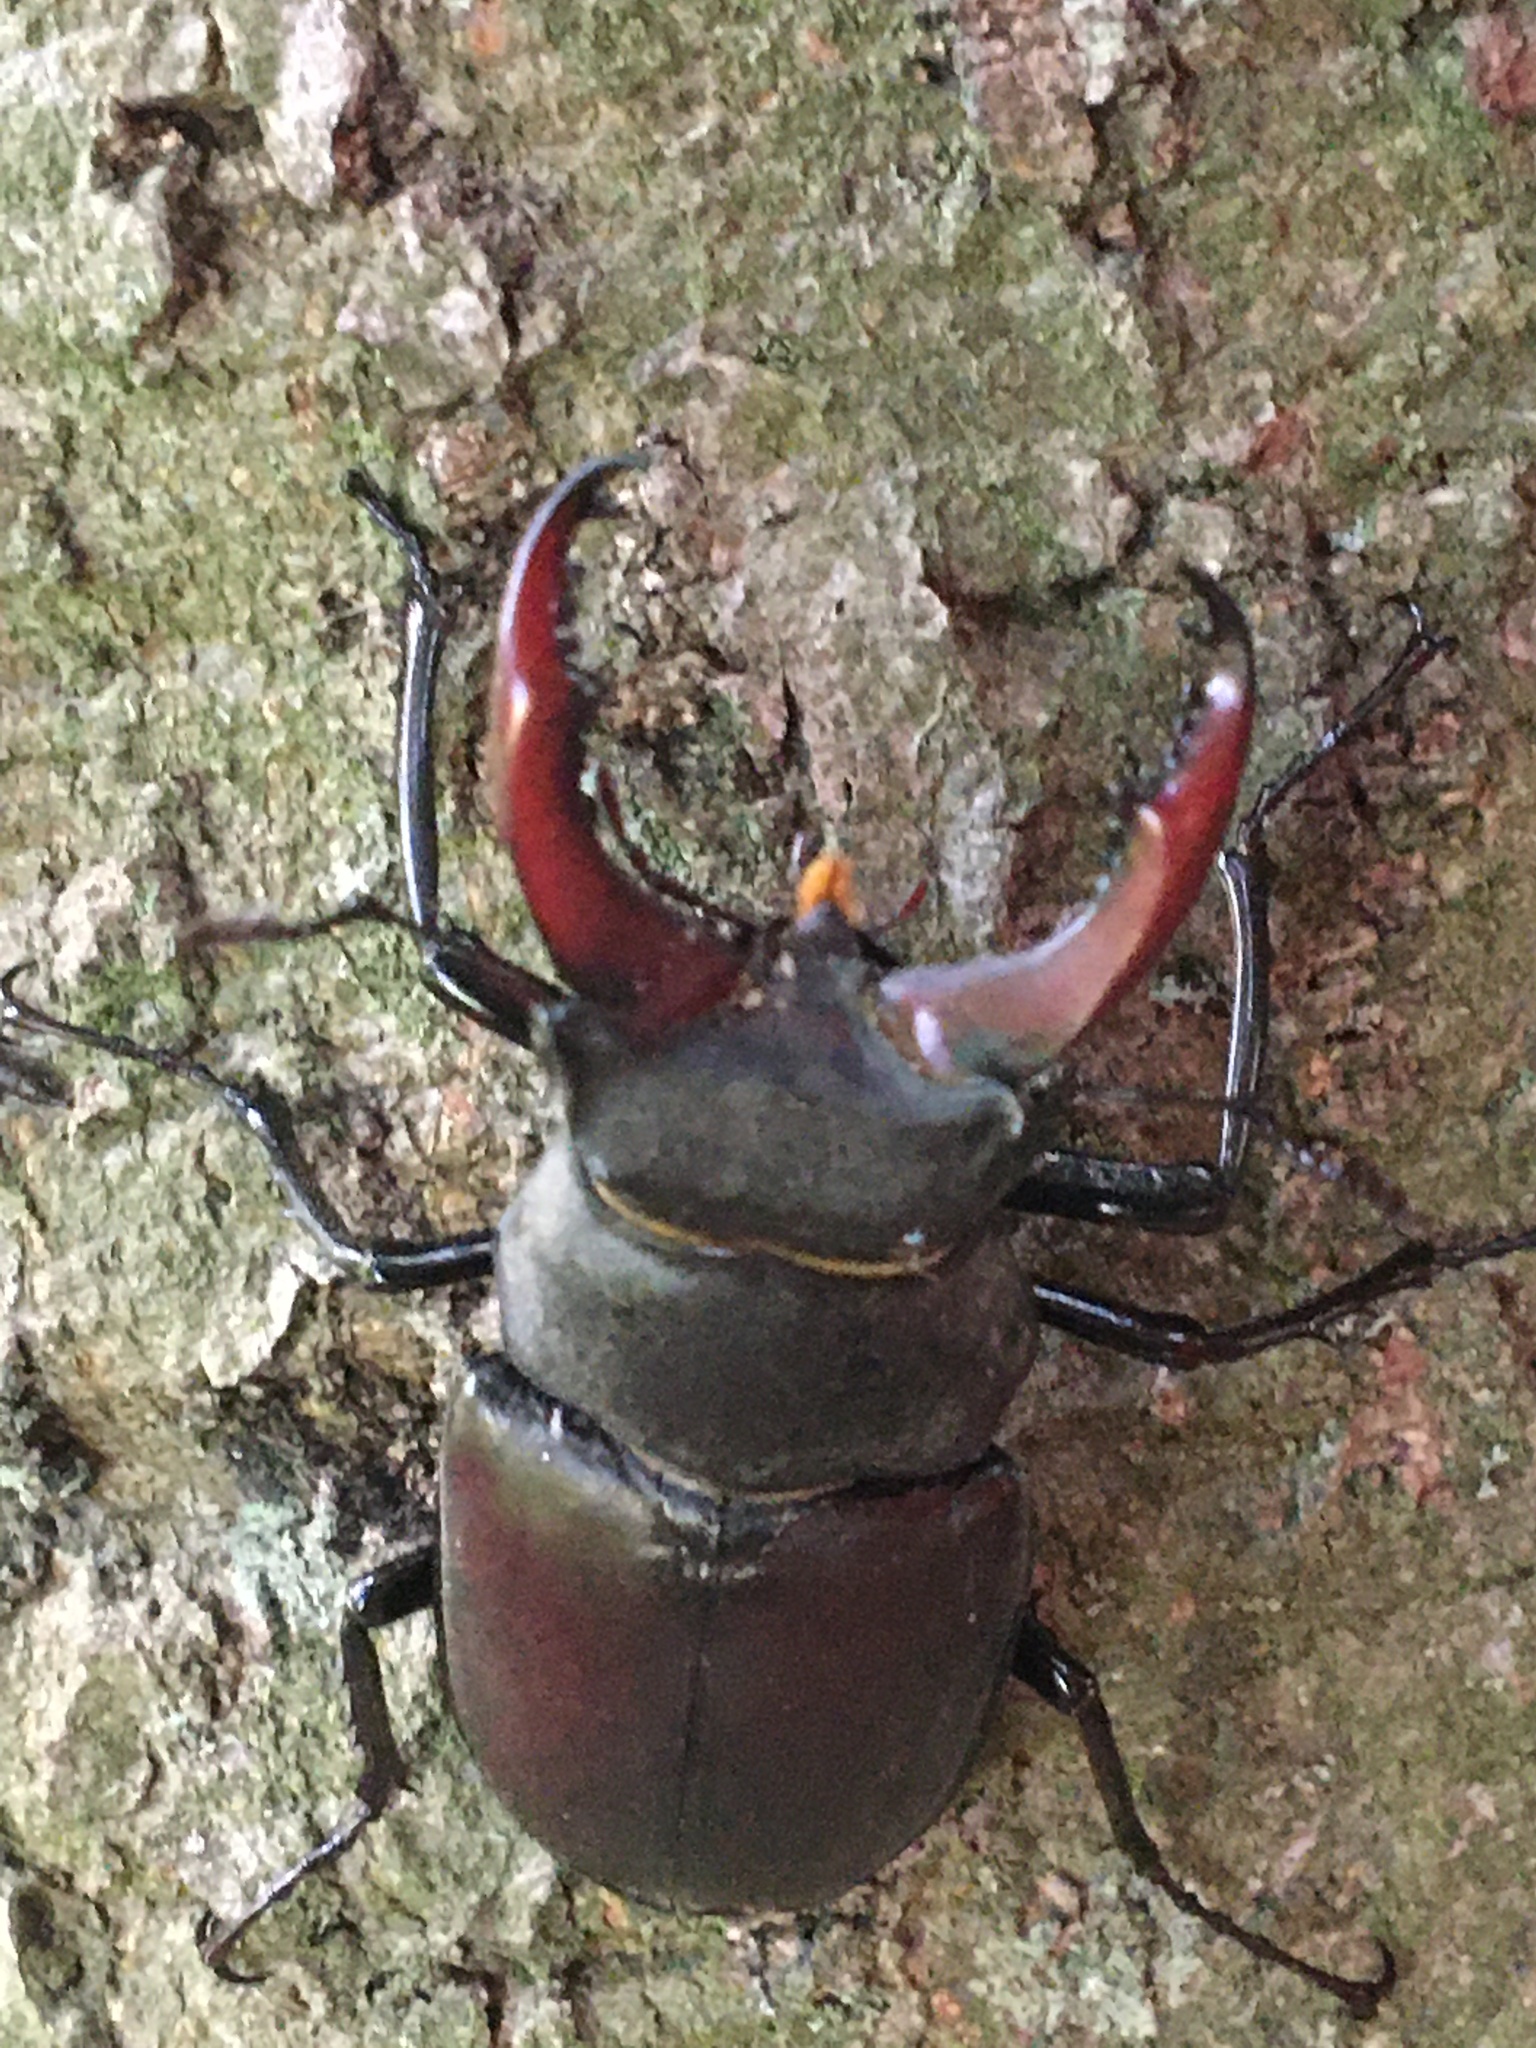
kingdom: Animalia
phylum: Arthropoda
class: Insecta
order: Coleoptera
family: Lucanidae
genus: Lucanus
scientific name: Lucanus cervus
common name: Stag beetle
